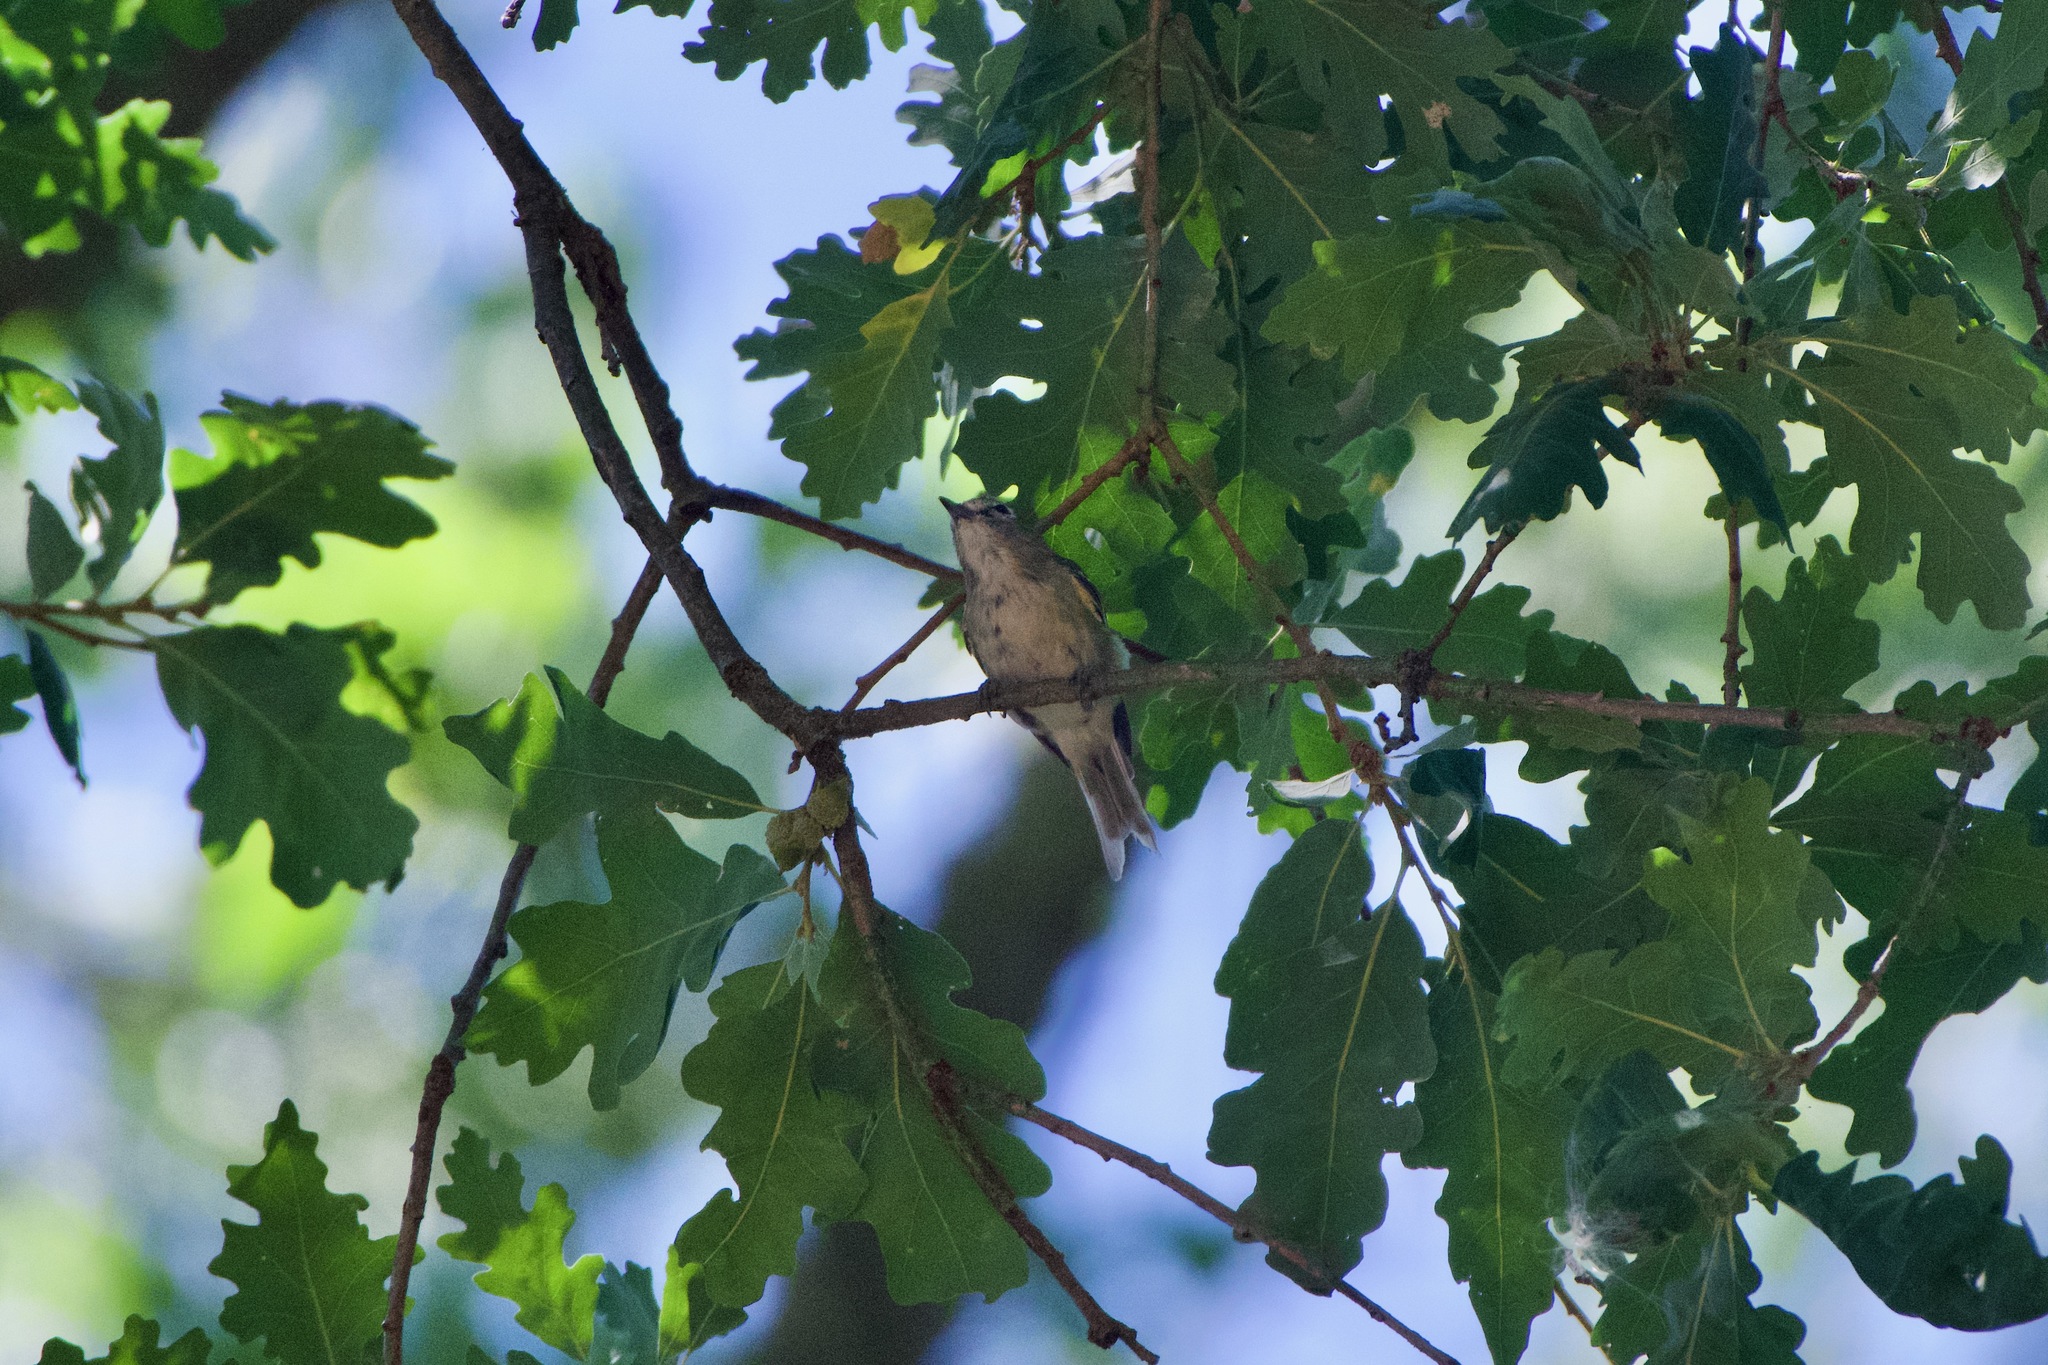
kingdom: Animalia
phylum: Chordata
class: Aves
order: Passeriformes
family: Vireonidae
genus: Vireo
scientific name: Vireo cassinii
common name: Cassin's vireo
